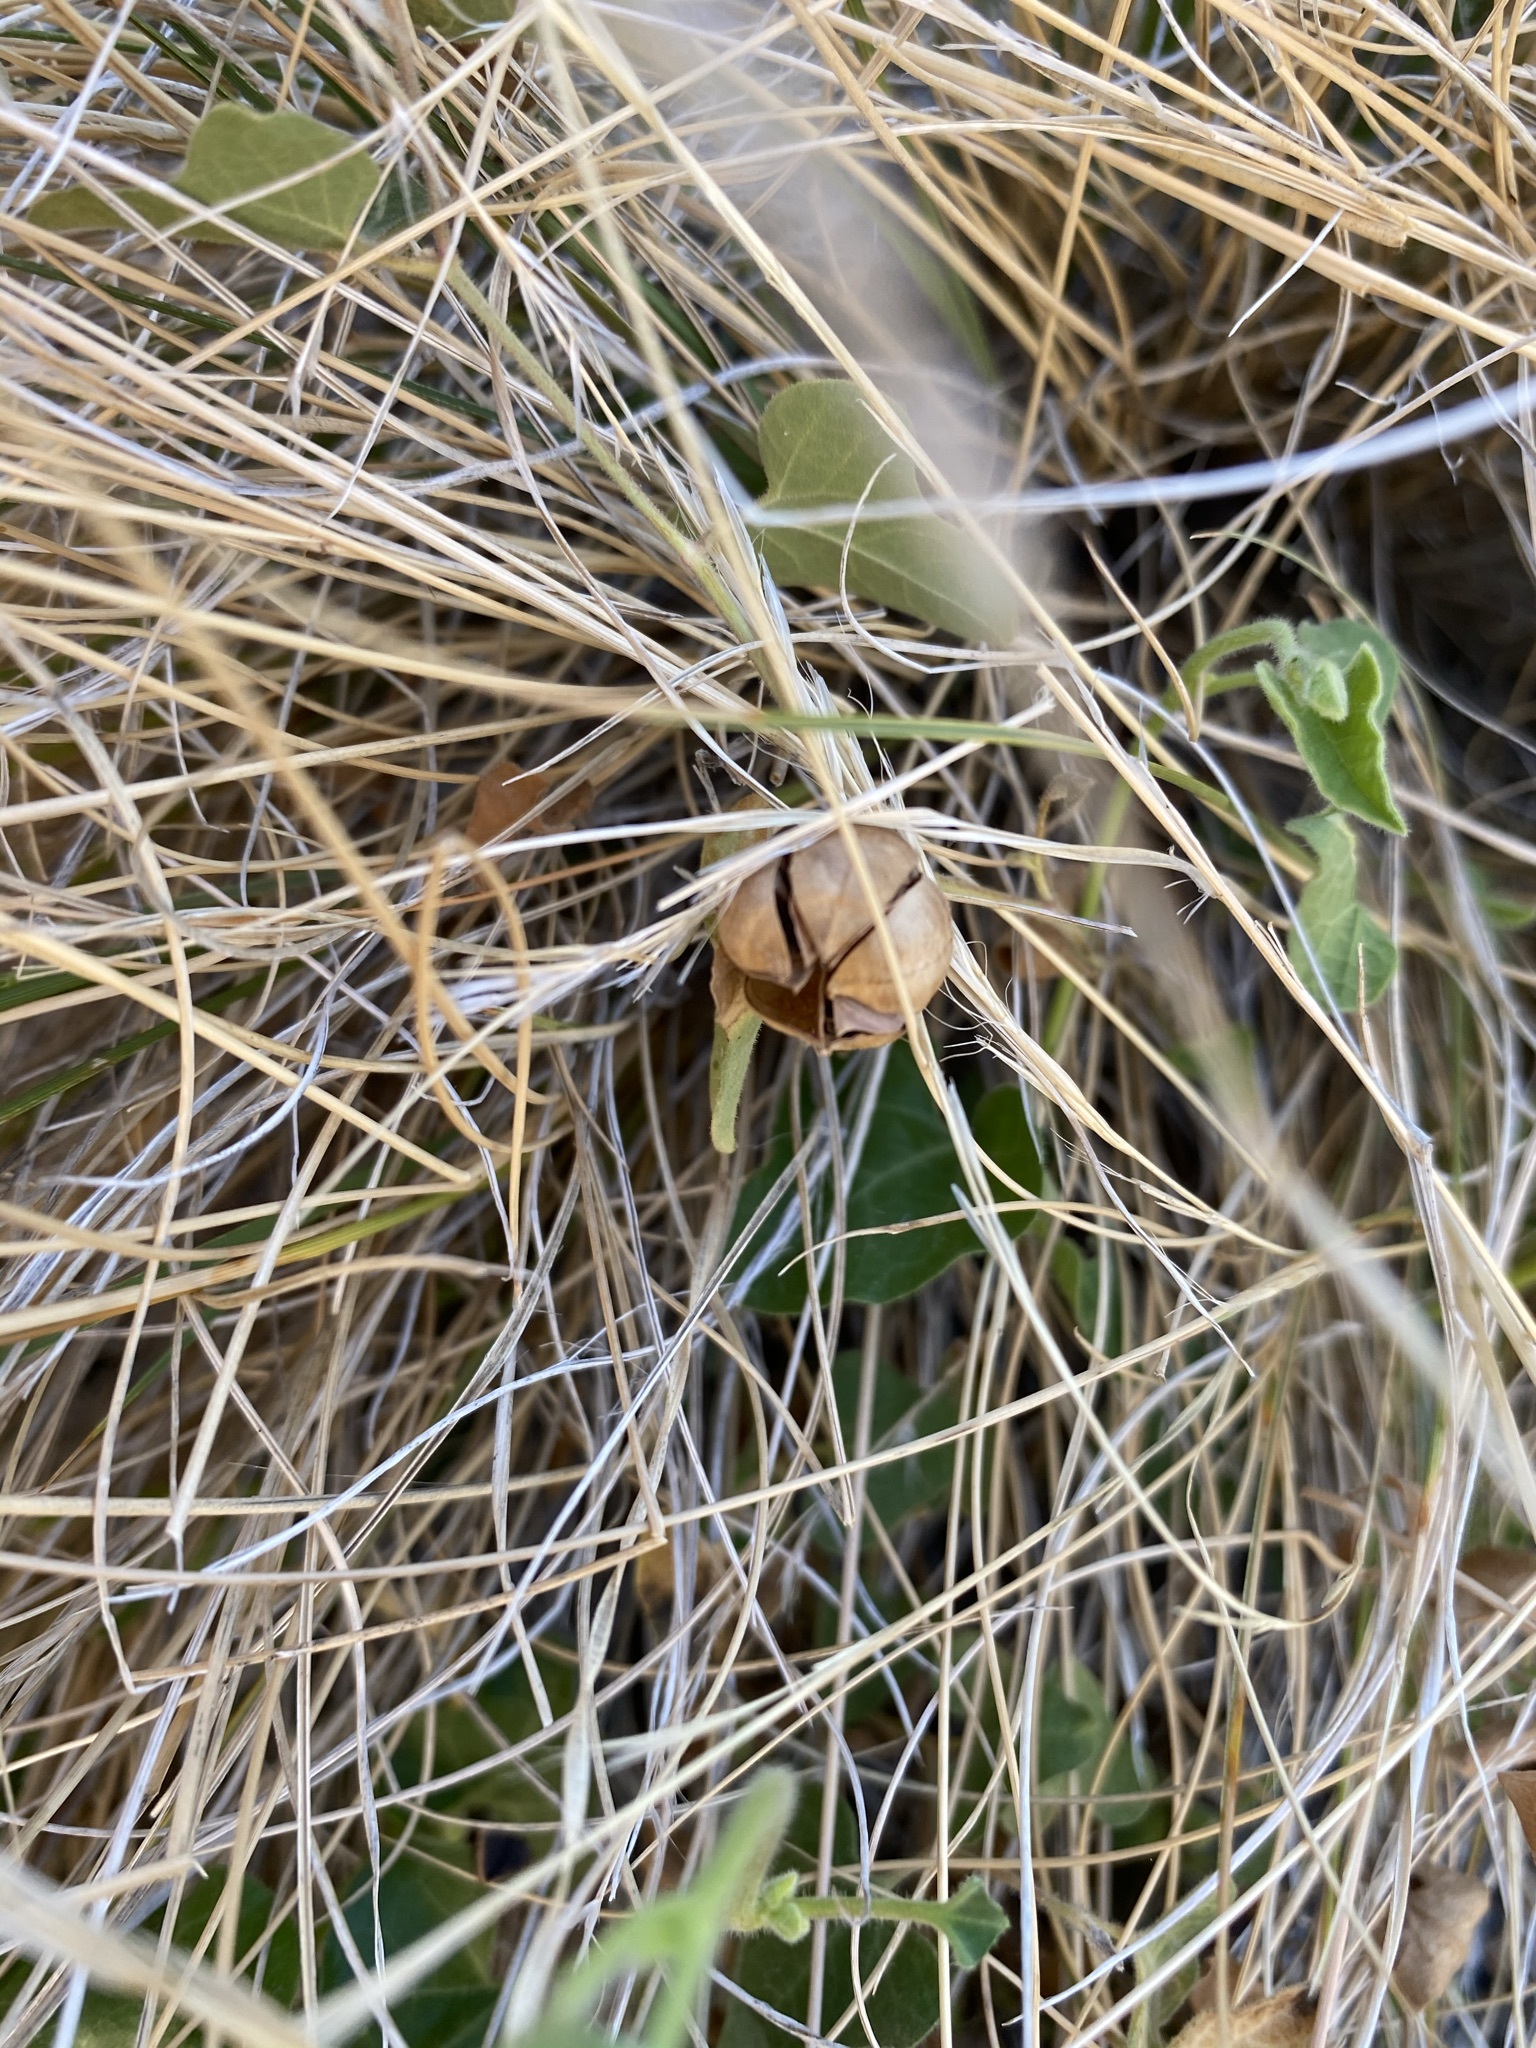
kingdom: Plantae
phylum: Tracheophyta
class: Magnoliopsida
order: Piperales
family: Aristolochiaceae
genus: Aristolochia
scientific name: Aristolochia coryi
